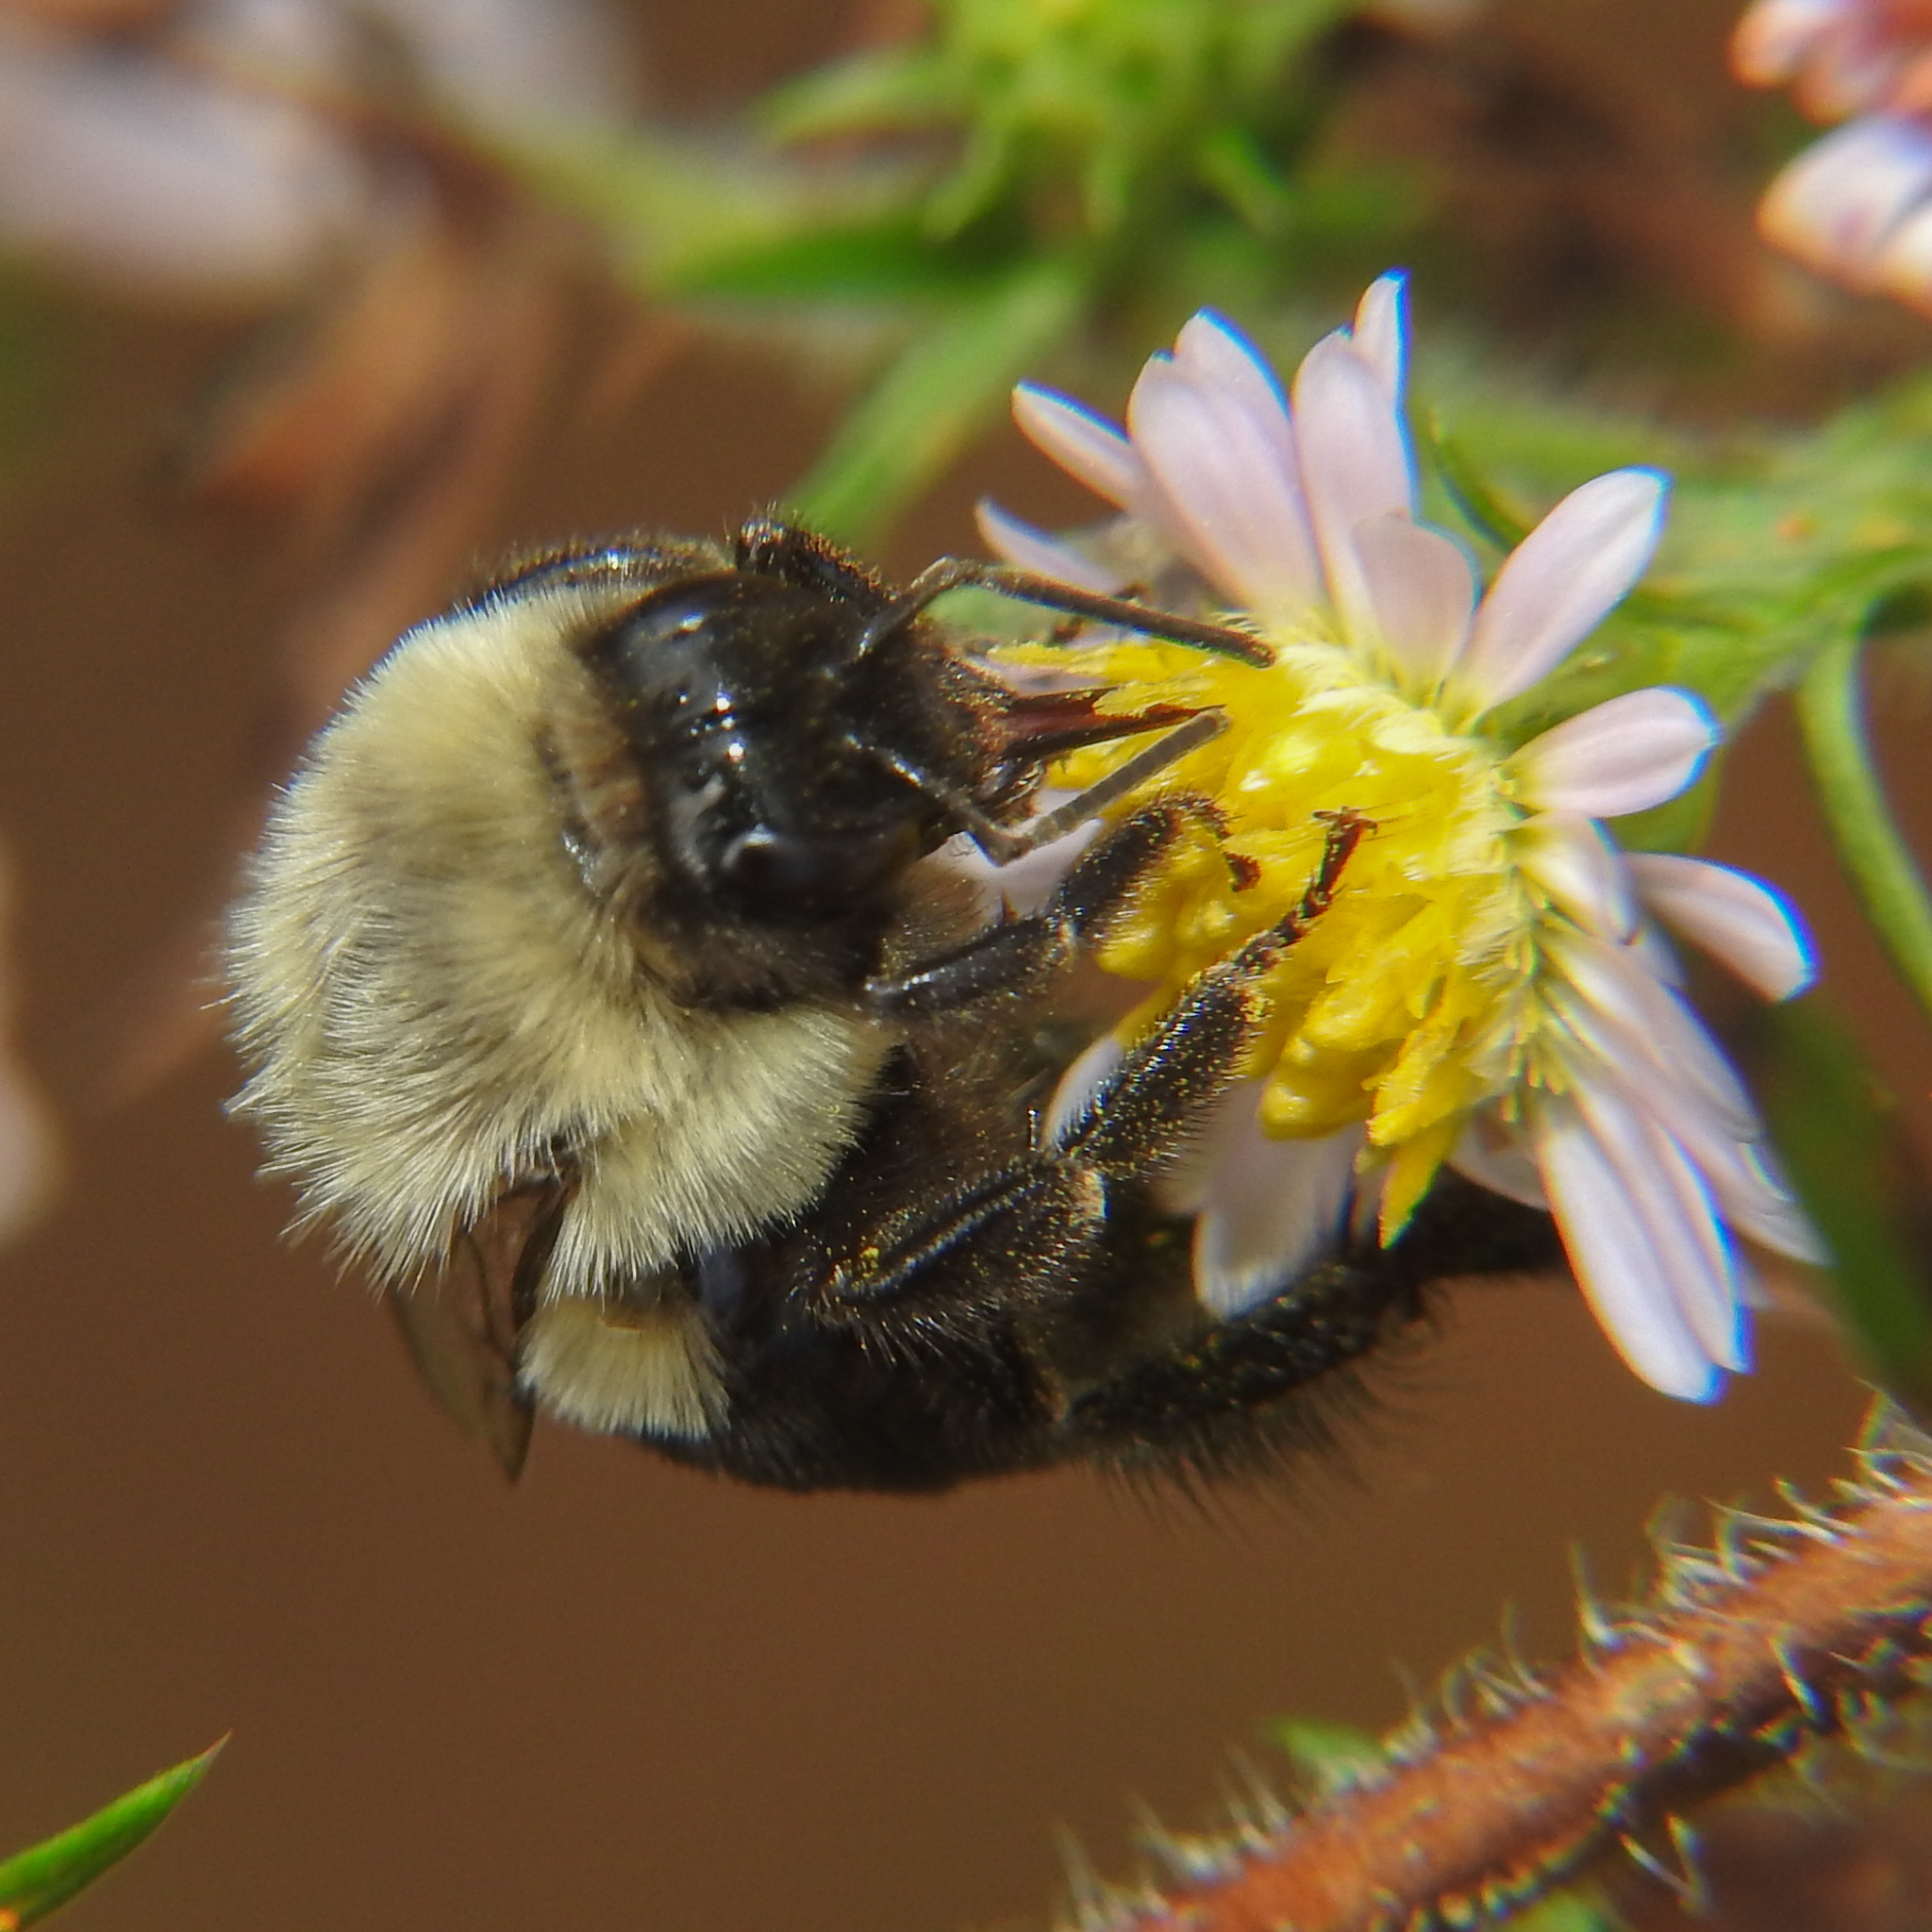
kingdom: Animalia
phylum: Arthropoda
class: Insecta
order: Hymenoptera
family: Apidae
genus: Bombus
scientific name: Bombus impatiens
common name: Common eastern bumble bee
